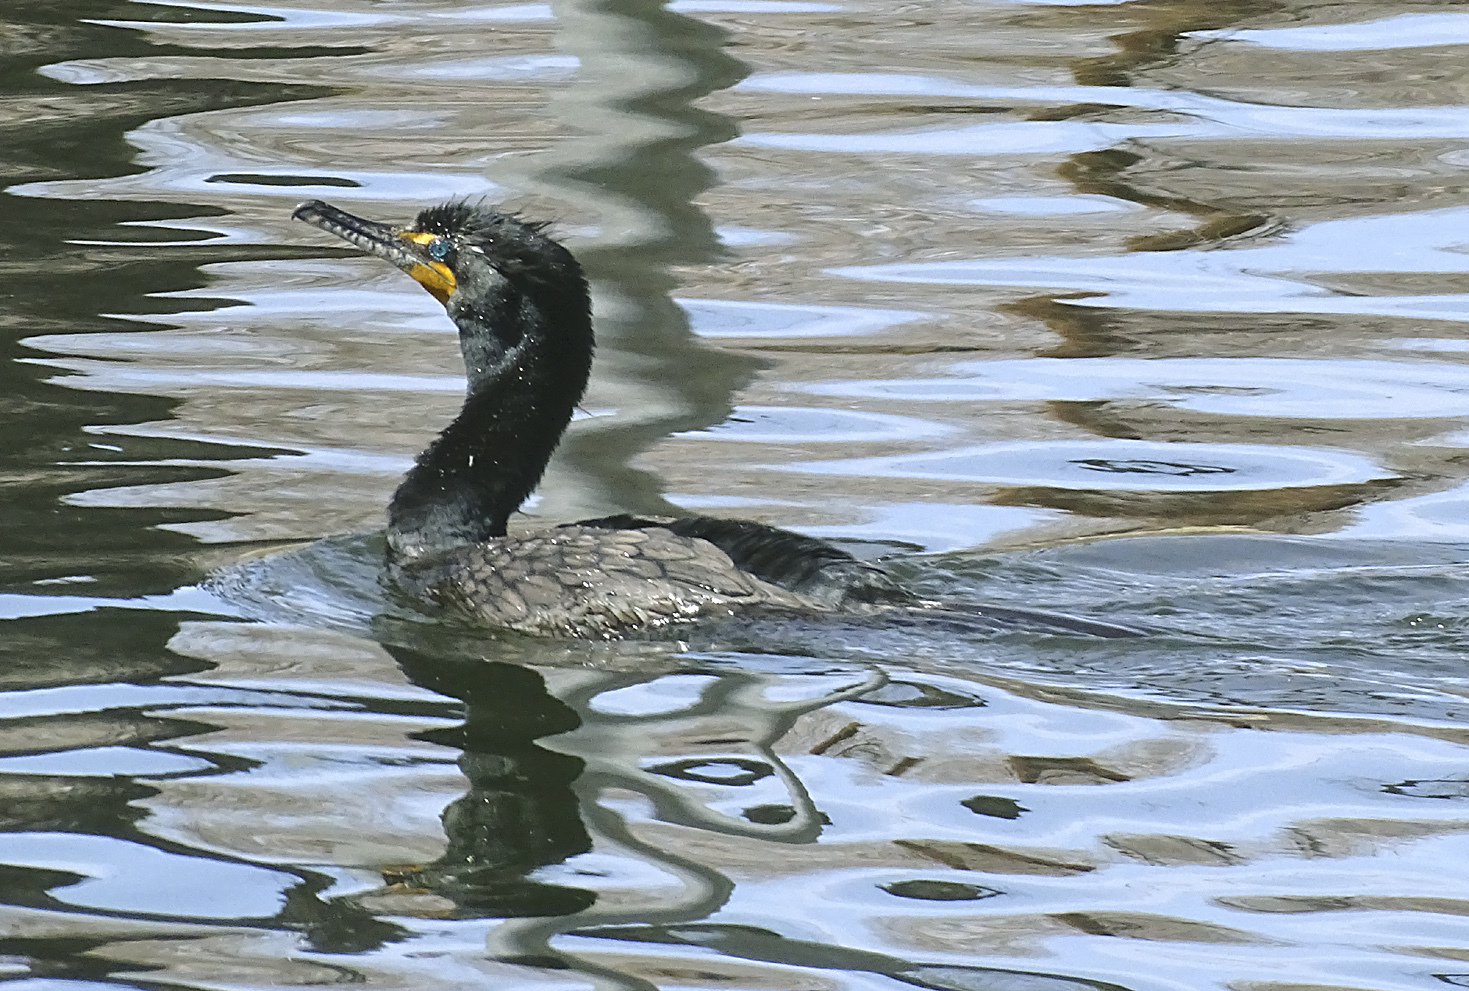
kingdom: Animalia
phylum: Chordata
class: Aves
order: Suliformes
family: Phalacrocoracidae
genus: Phalacrocorax
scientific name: Phalacrocorax auritus
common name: Double-crested cormorant
